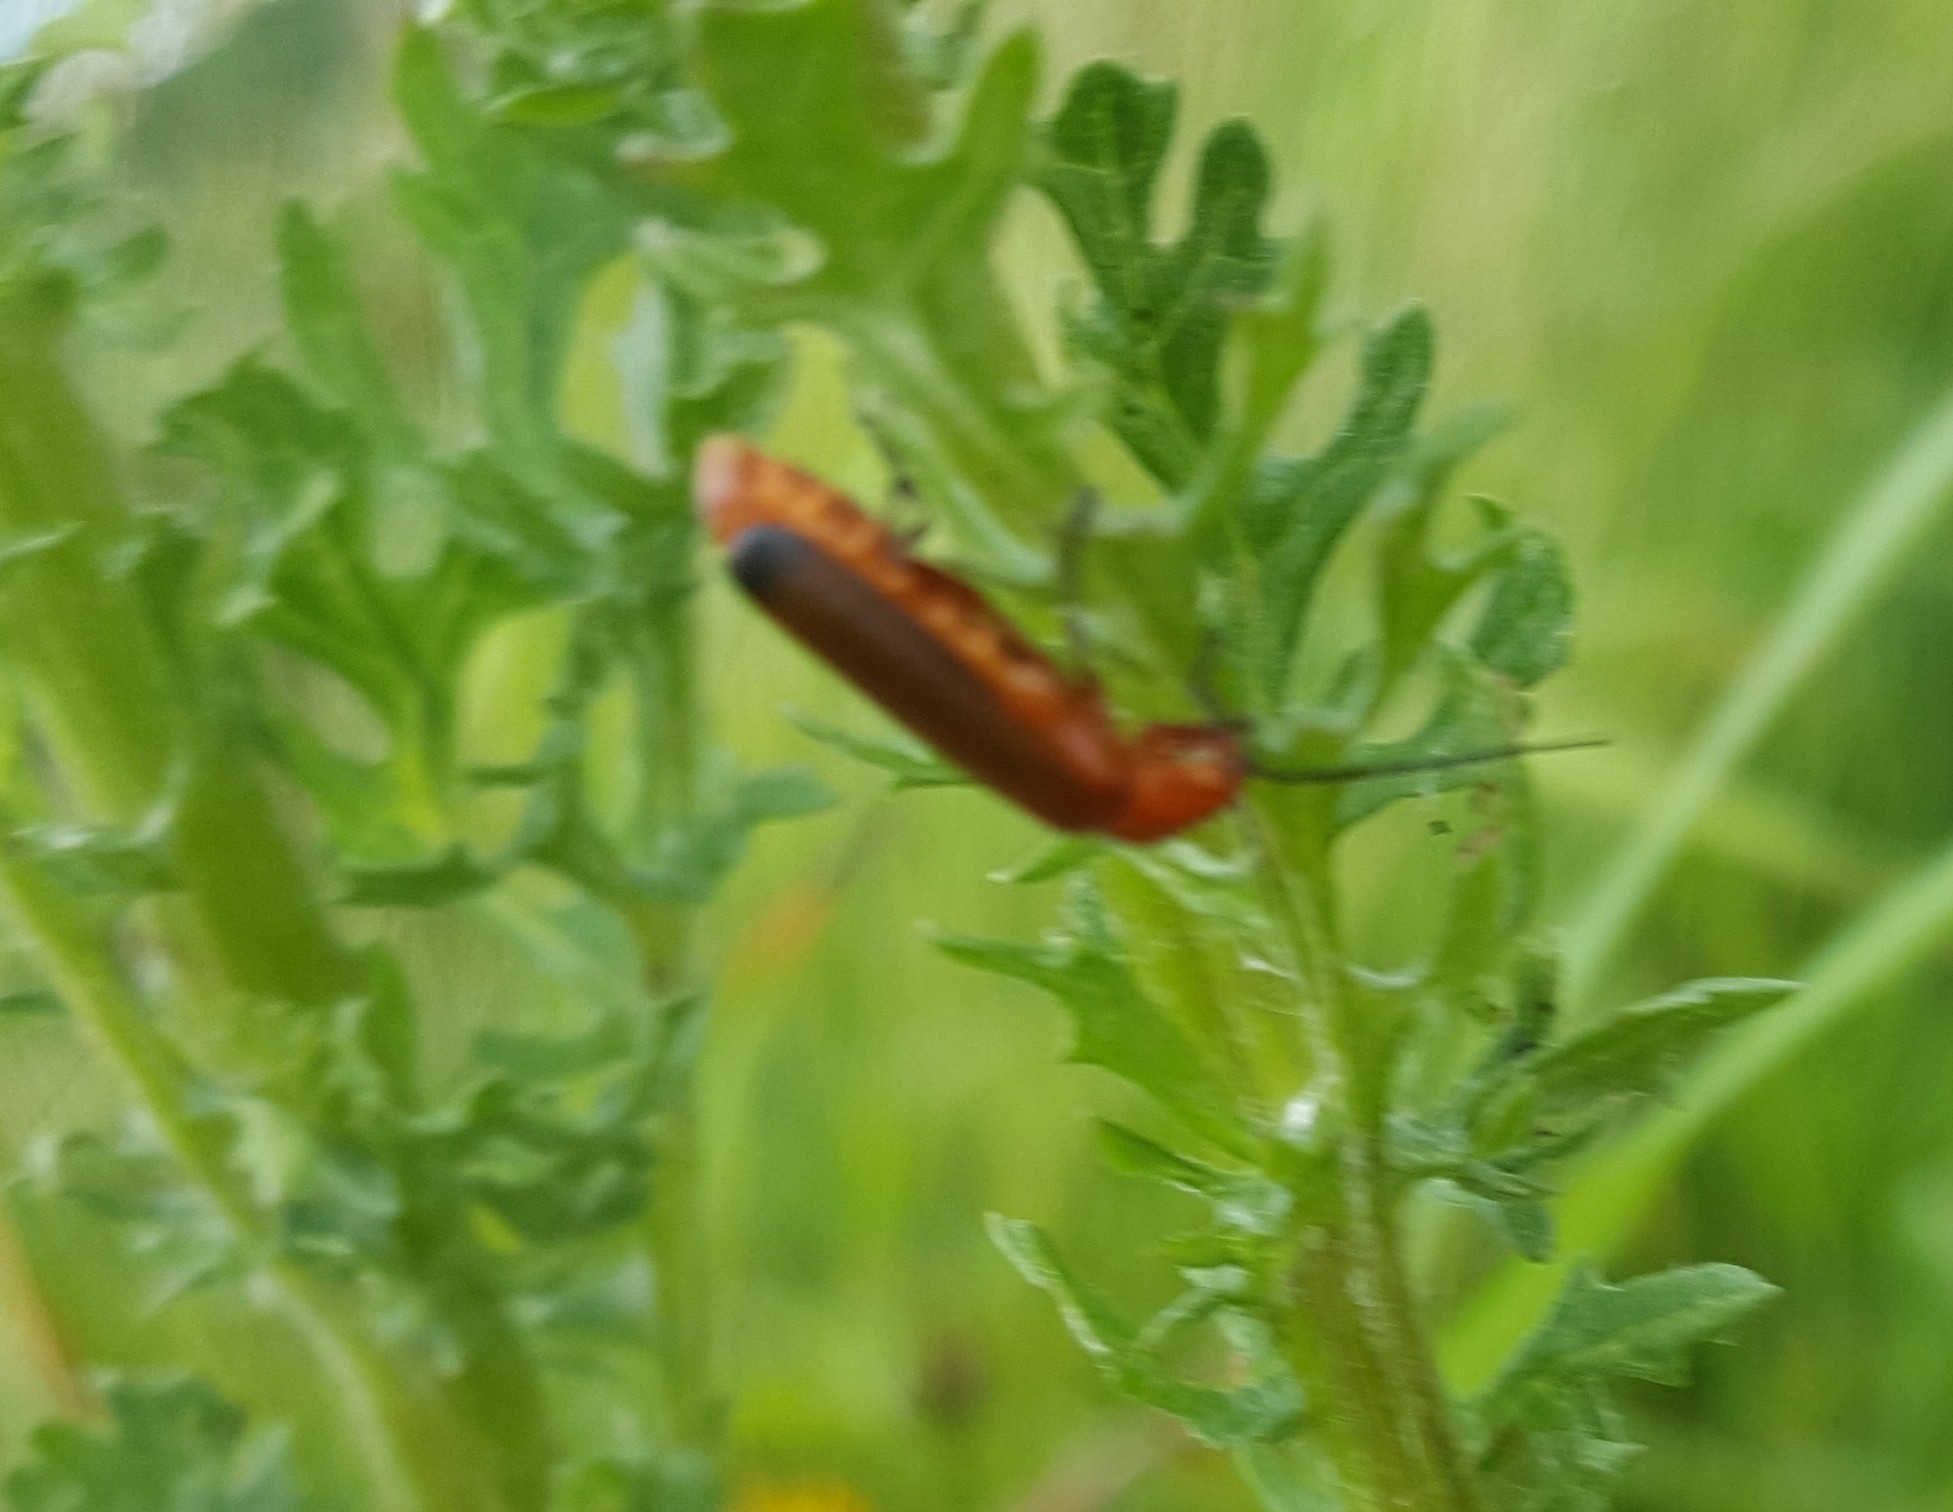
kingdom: Animalia
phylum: Arthropoda
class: Insecta
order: Coleoptera
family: Cantharidae
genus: Rhagonycha
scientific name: Rhagonycha fulva
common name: Common red soldier beetle
